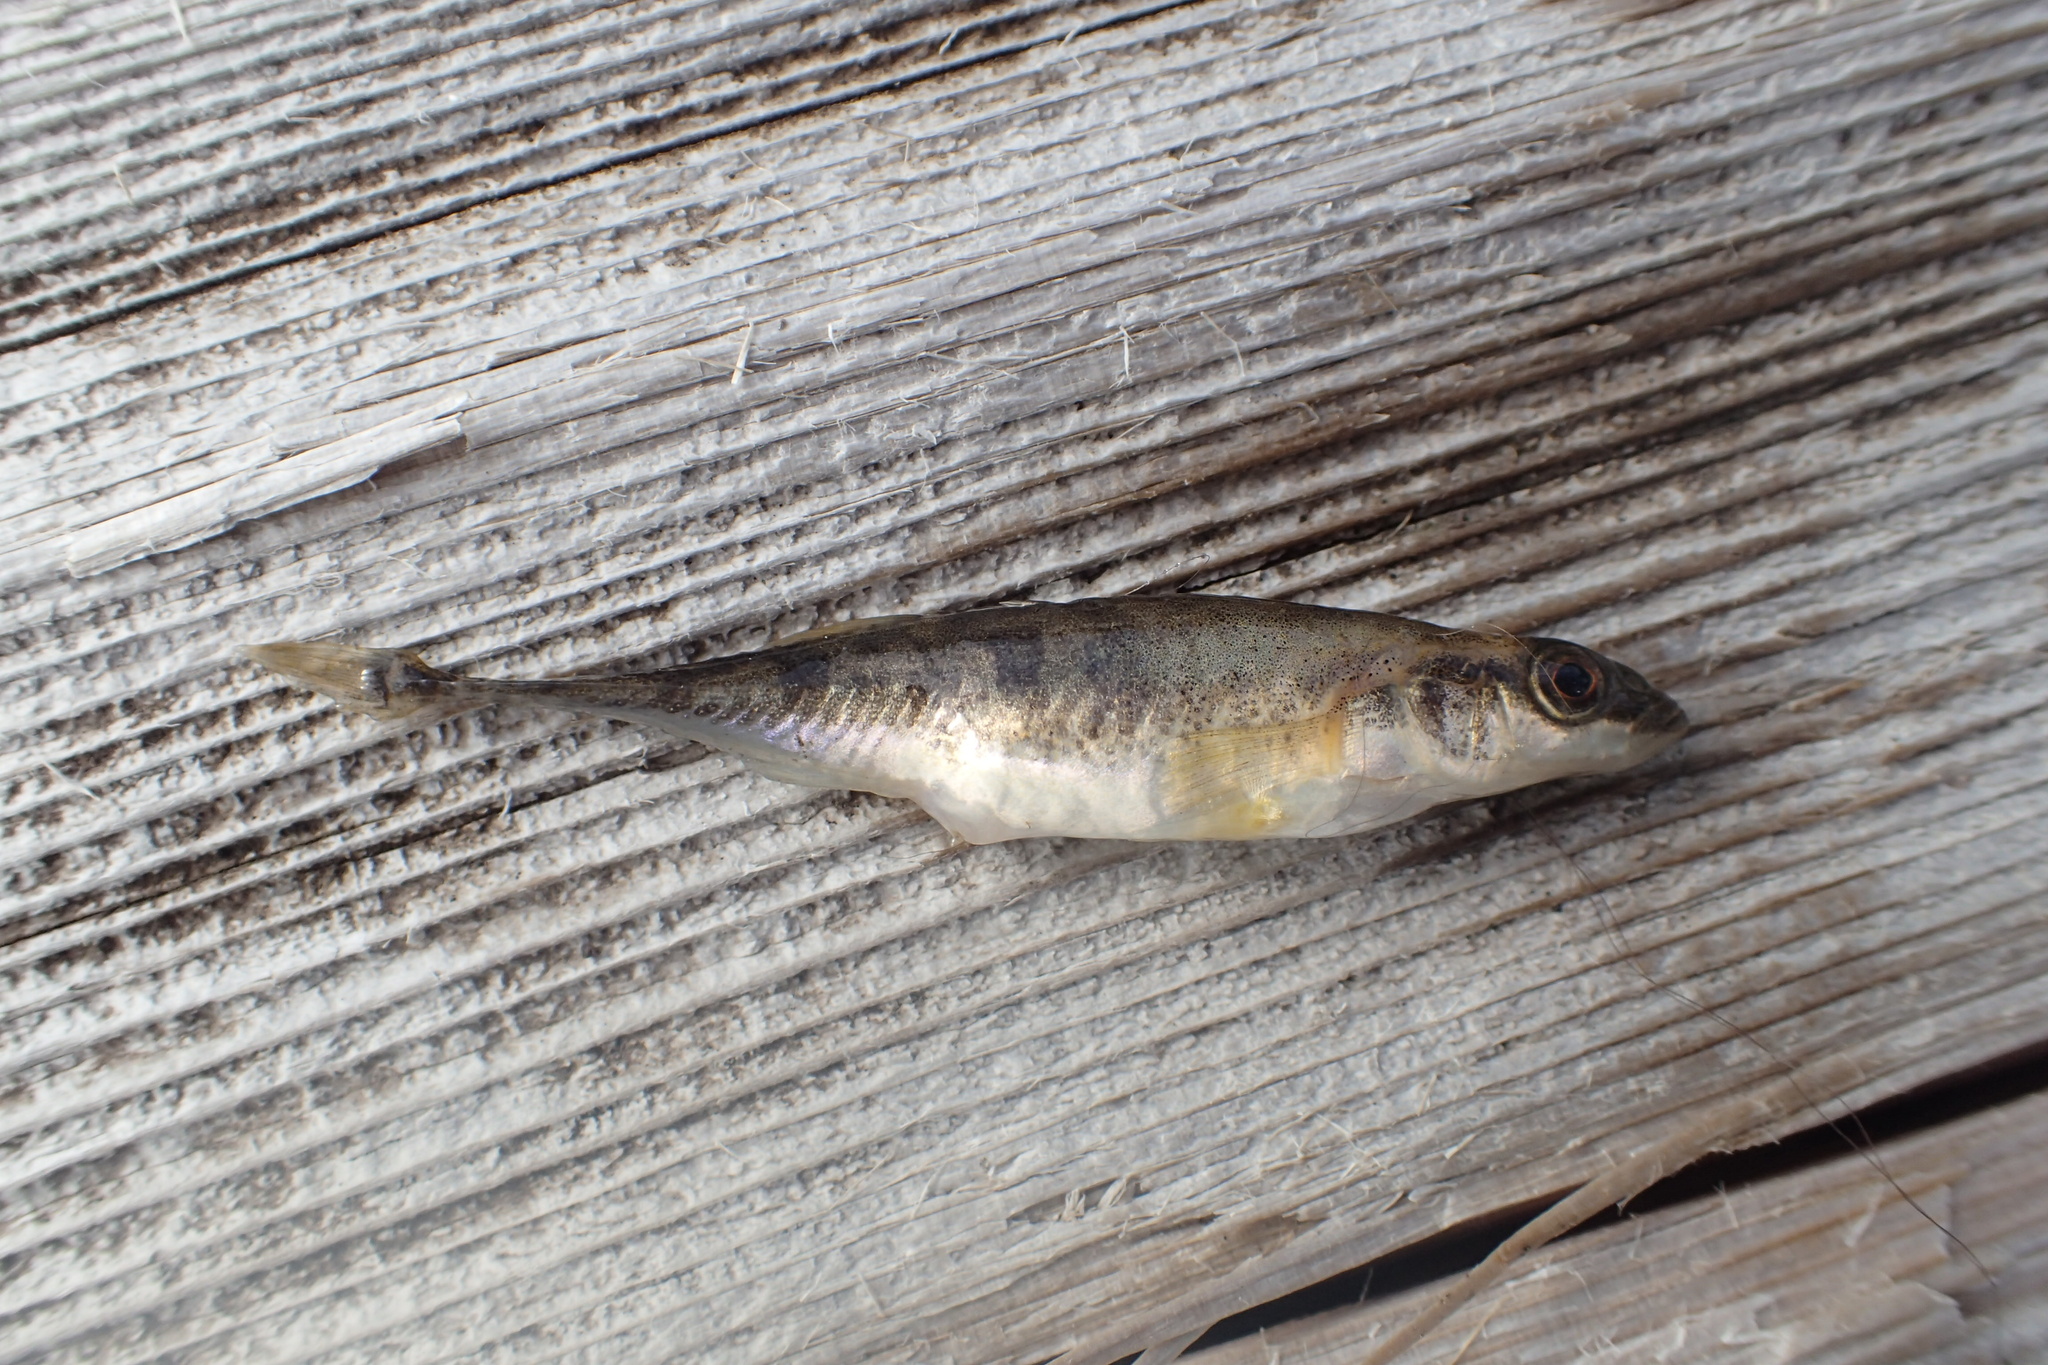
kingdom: Animalia
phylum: Chordata
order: Gasterosteiformes
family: Gasterosteidae
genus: Pungitius
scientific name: Pungitius pungitius
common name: Nine-spined stickleback
